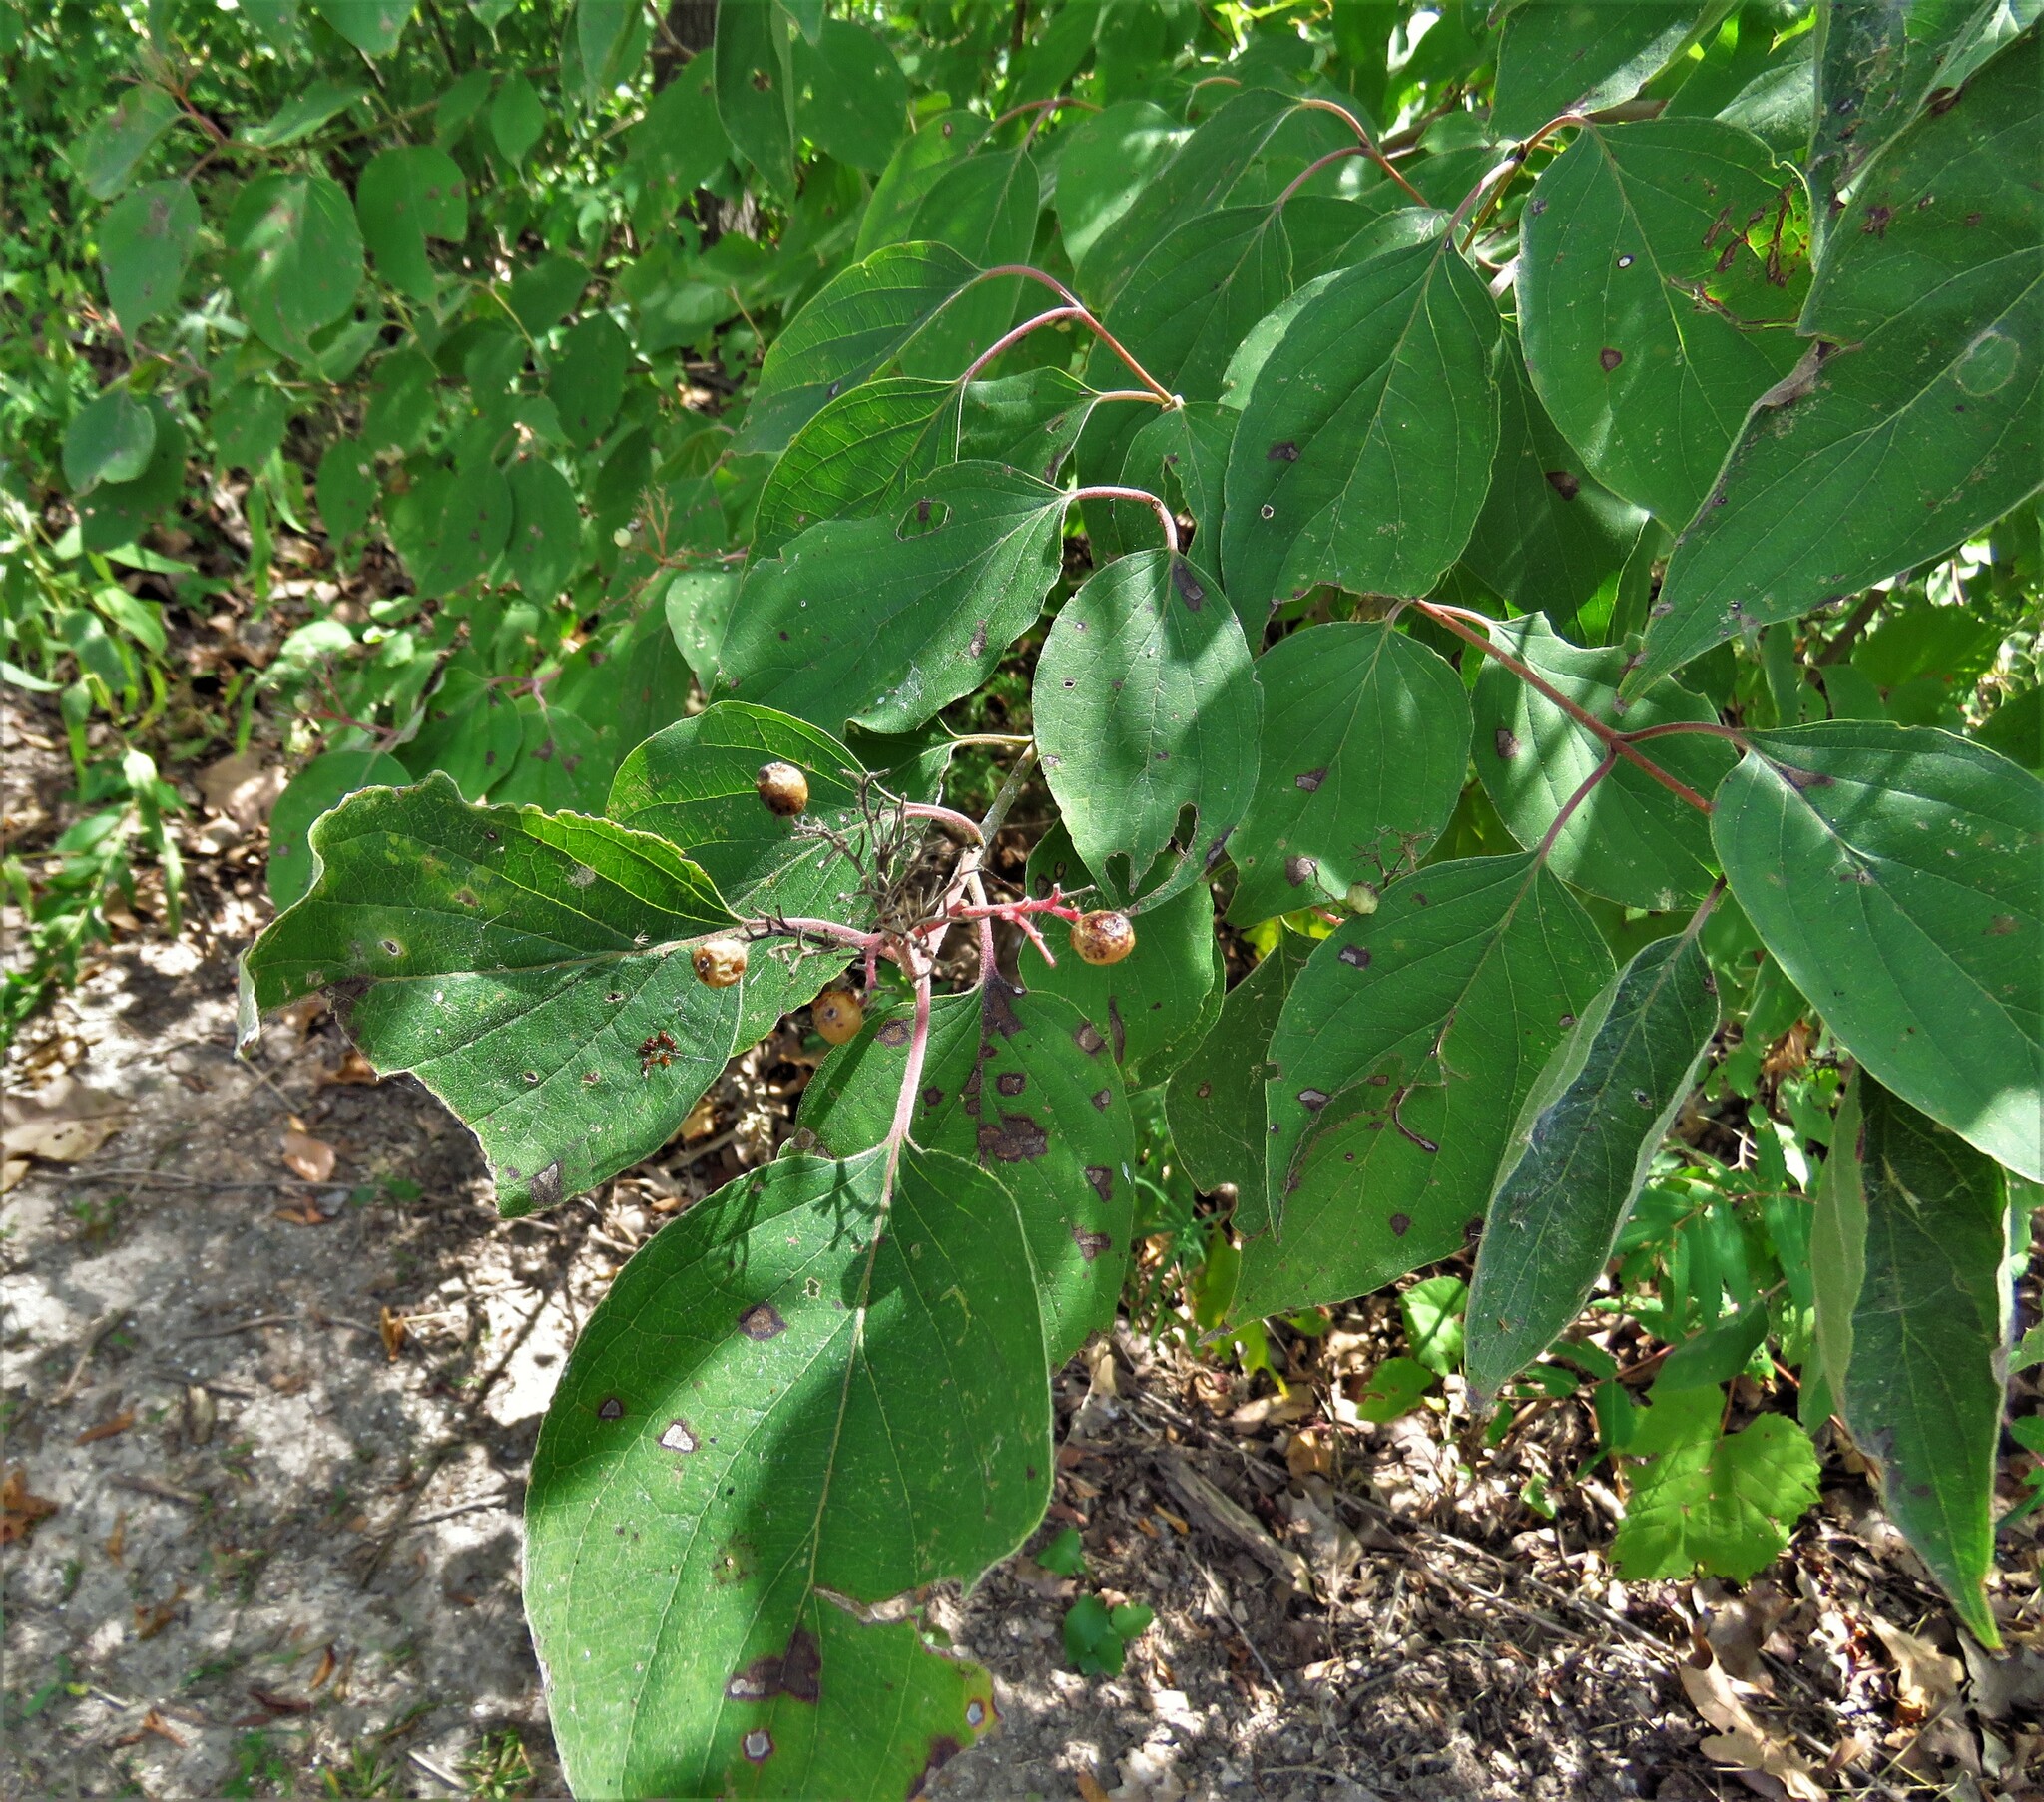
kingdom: Plantae
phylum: Tracheophyta
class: Magnoliopsida
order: Cornales
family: Cornaceae
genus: Cornus
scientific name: Cornus drummondii
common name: Rough-leaf dogwood
